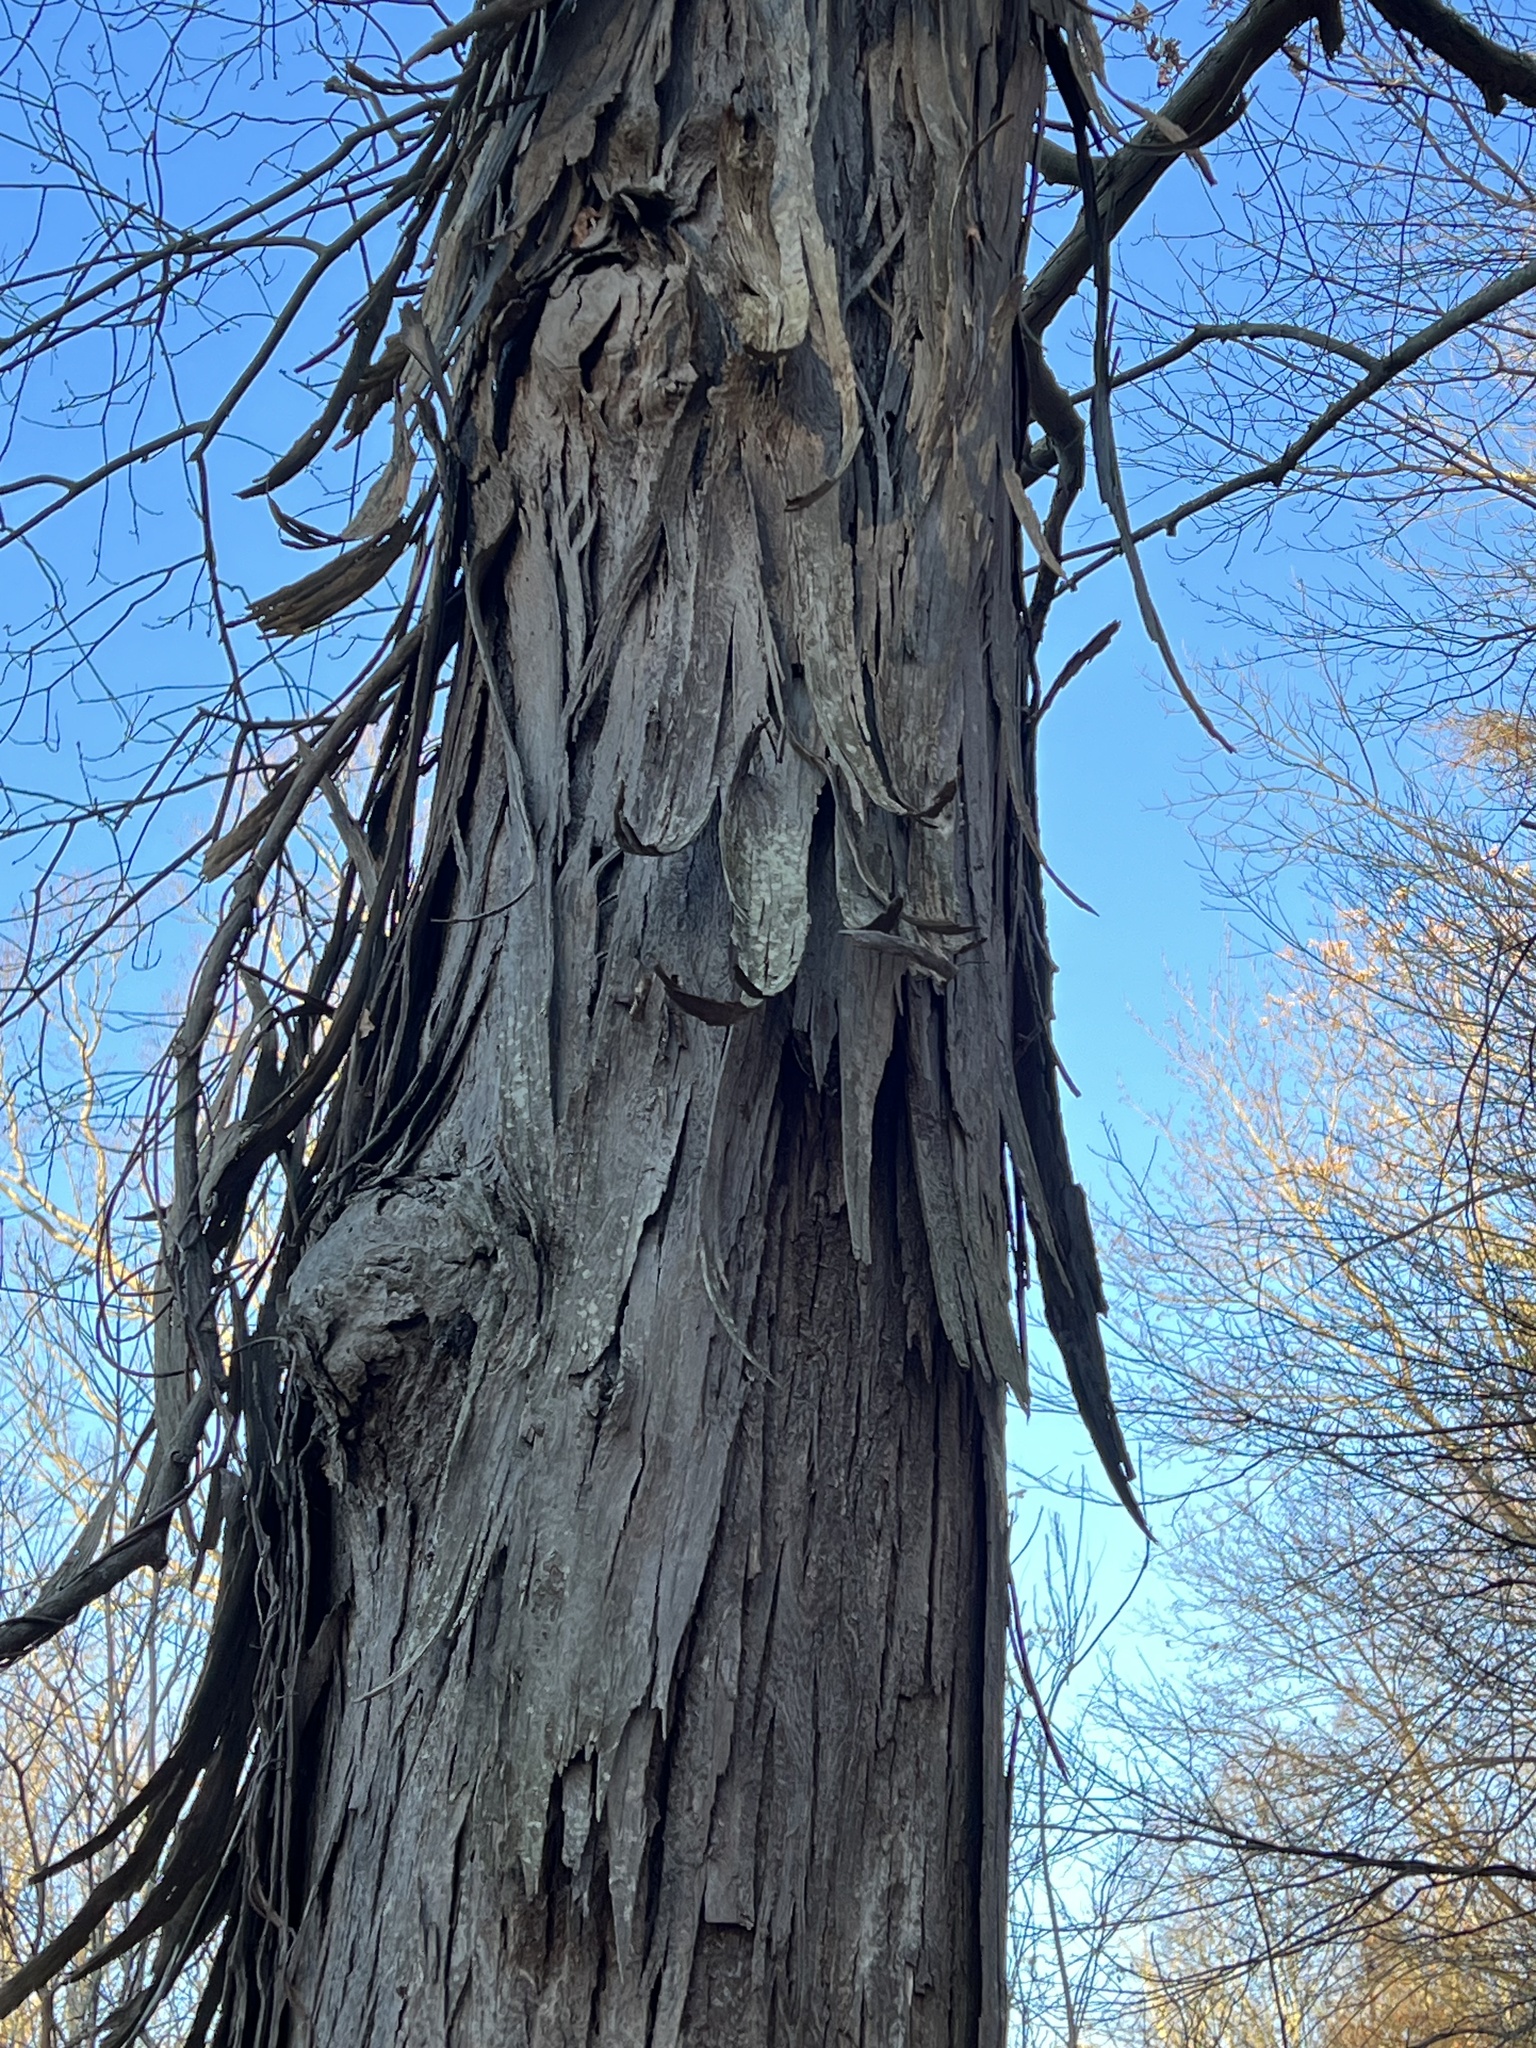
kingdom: Plantae
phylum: Tracheophyta
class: Magnoliopsida
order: Fagales
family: Juglandaceae
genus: Carya
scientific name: Carya ovata
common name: Shagbark hickory
